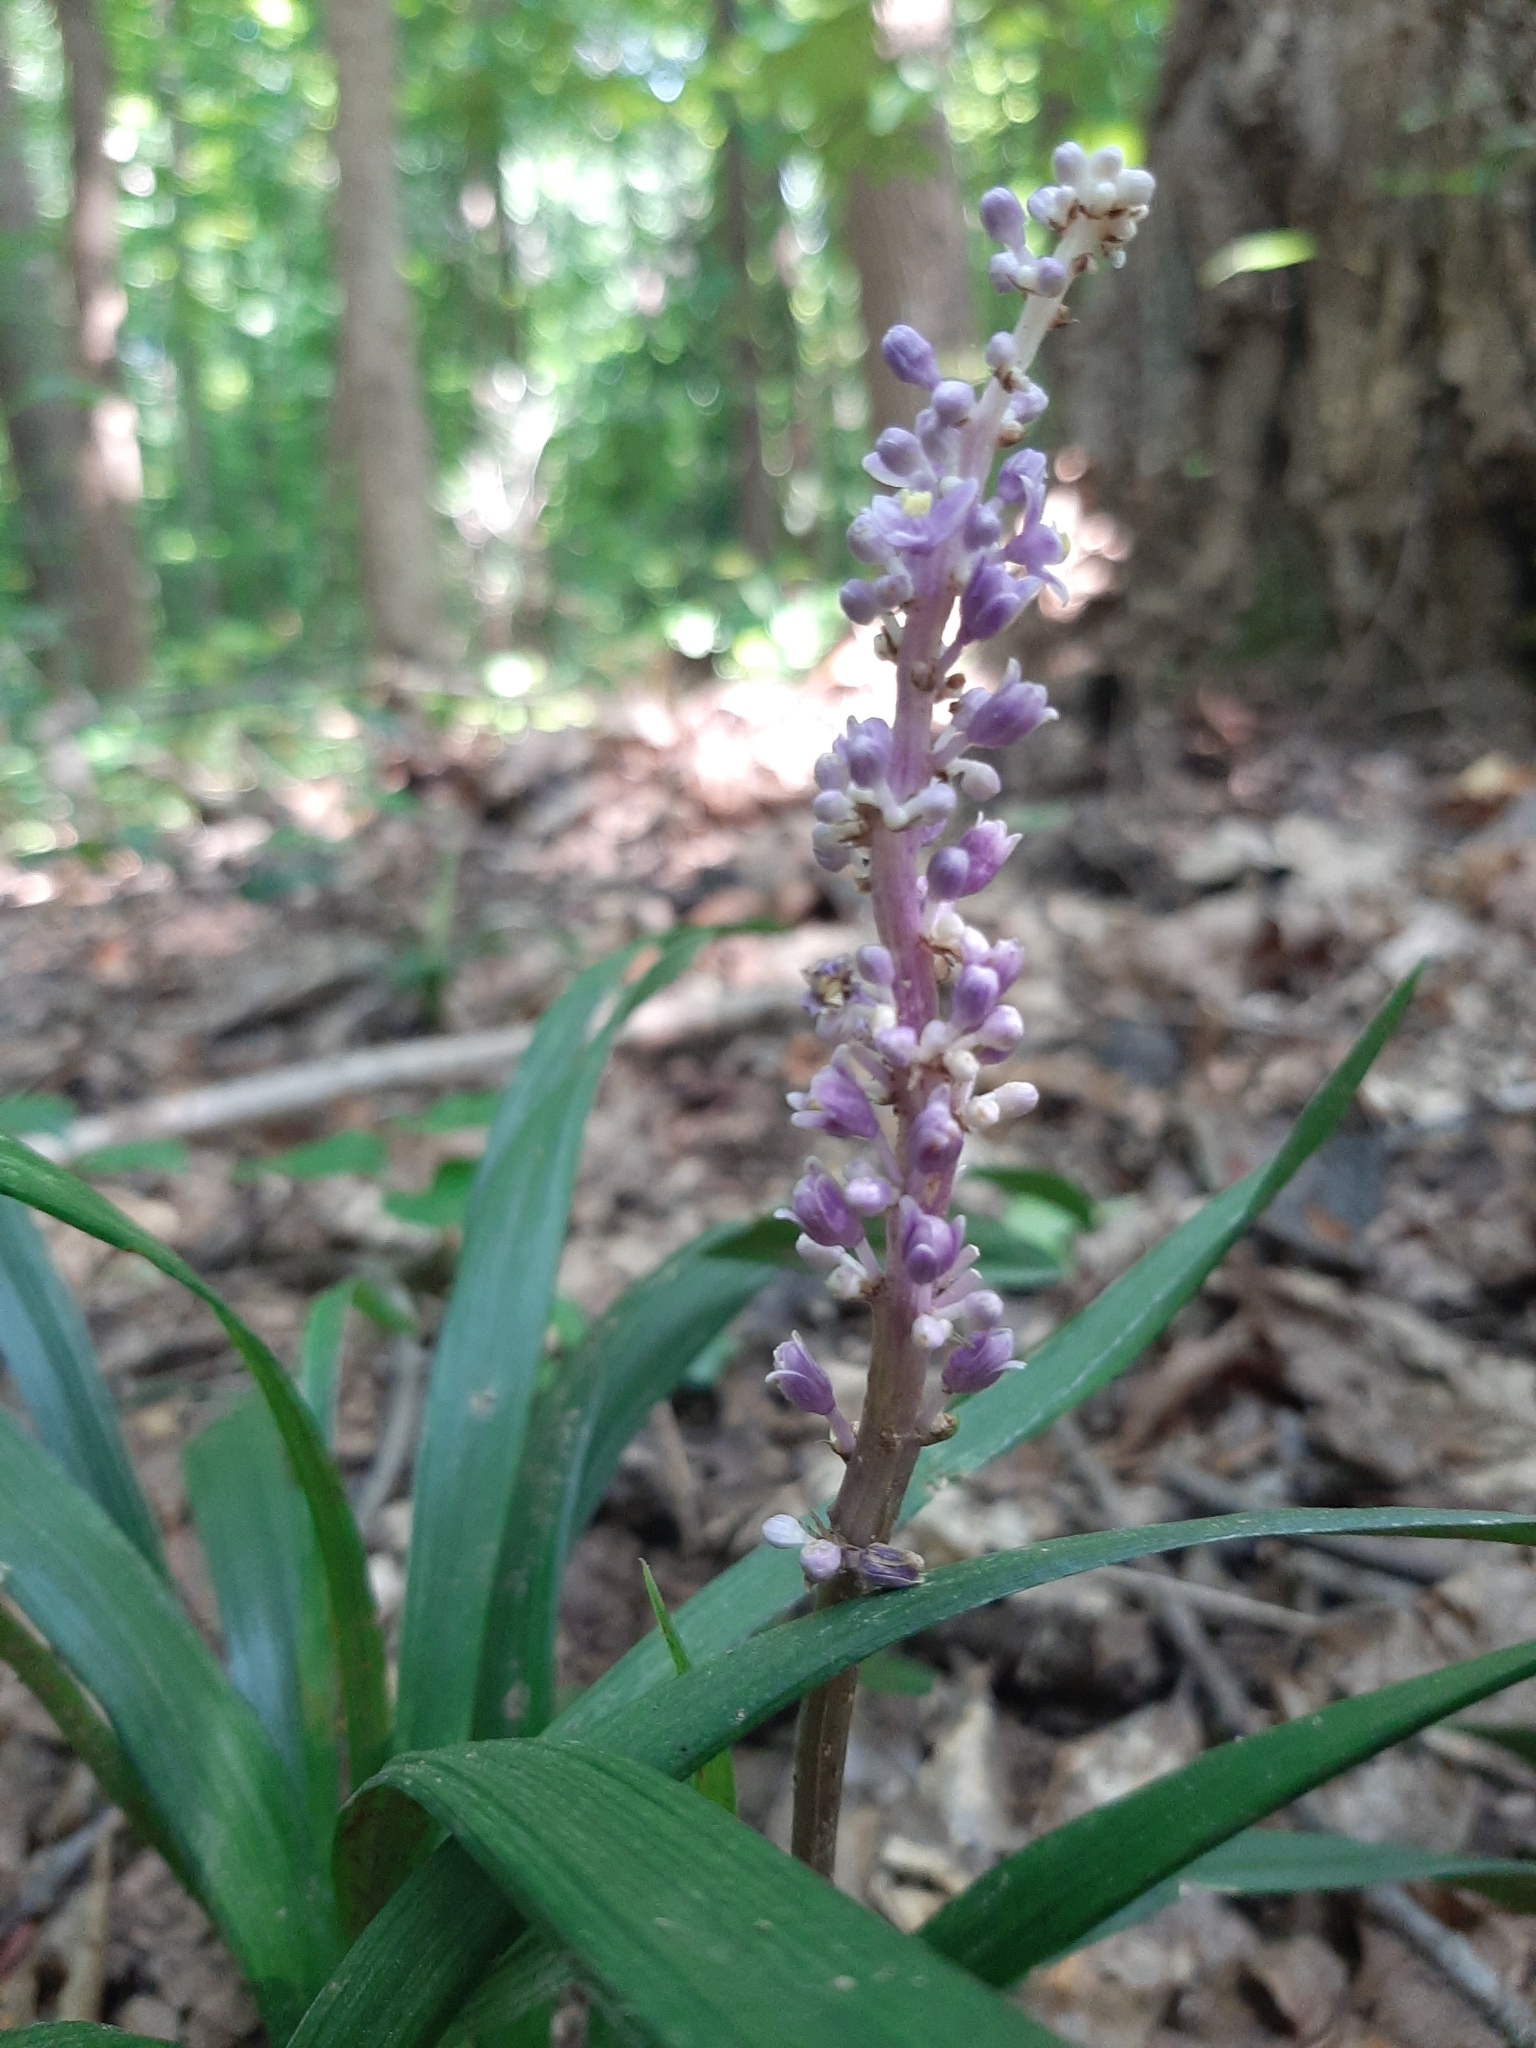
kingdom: Plantae
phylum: Tracheophyta
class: Liliopsida
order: Asparagales
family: Asparagaceae
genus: Liriope
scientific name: Liriope muscari
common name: Big blue lilyturf
